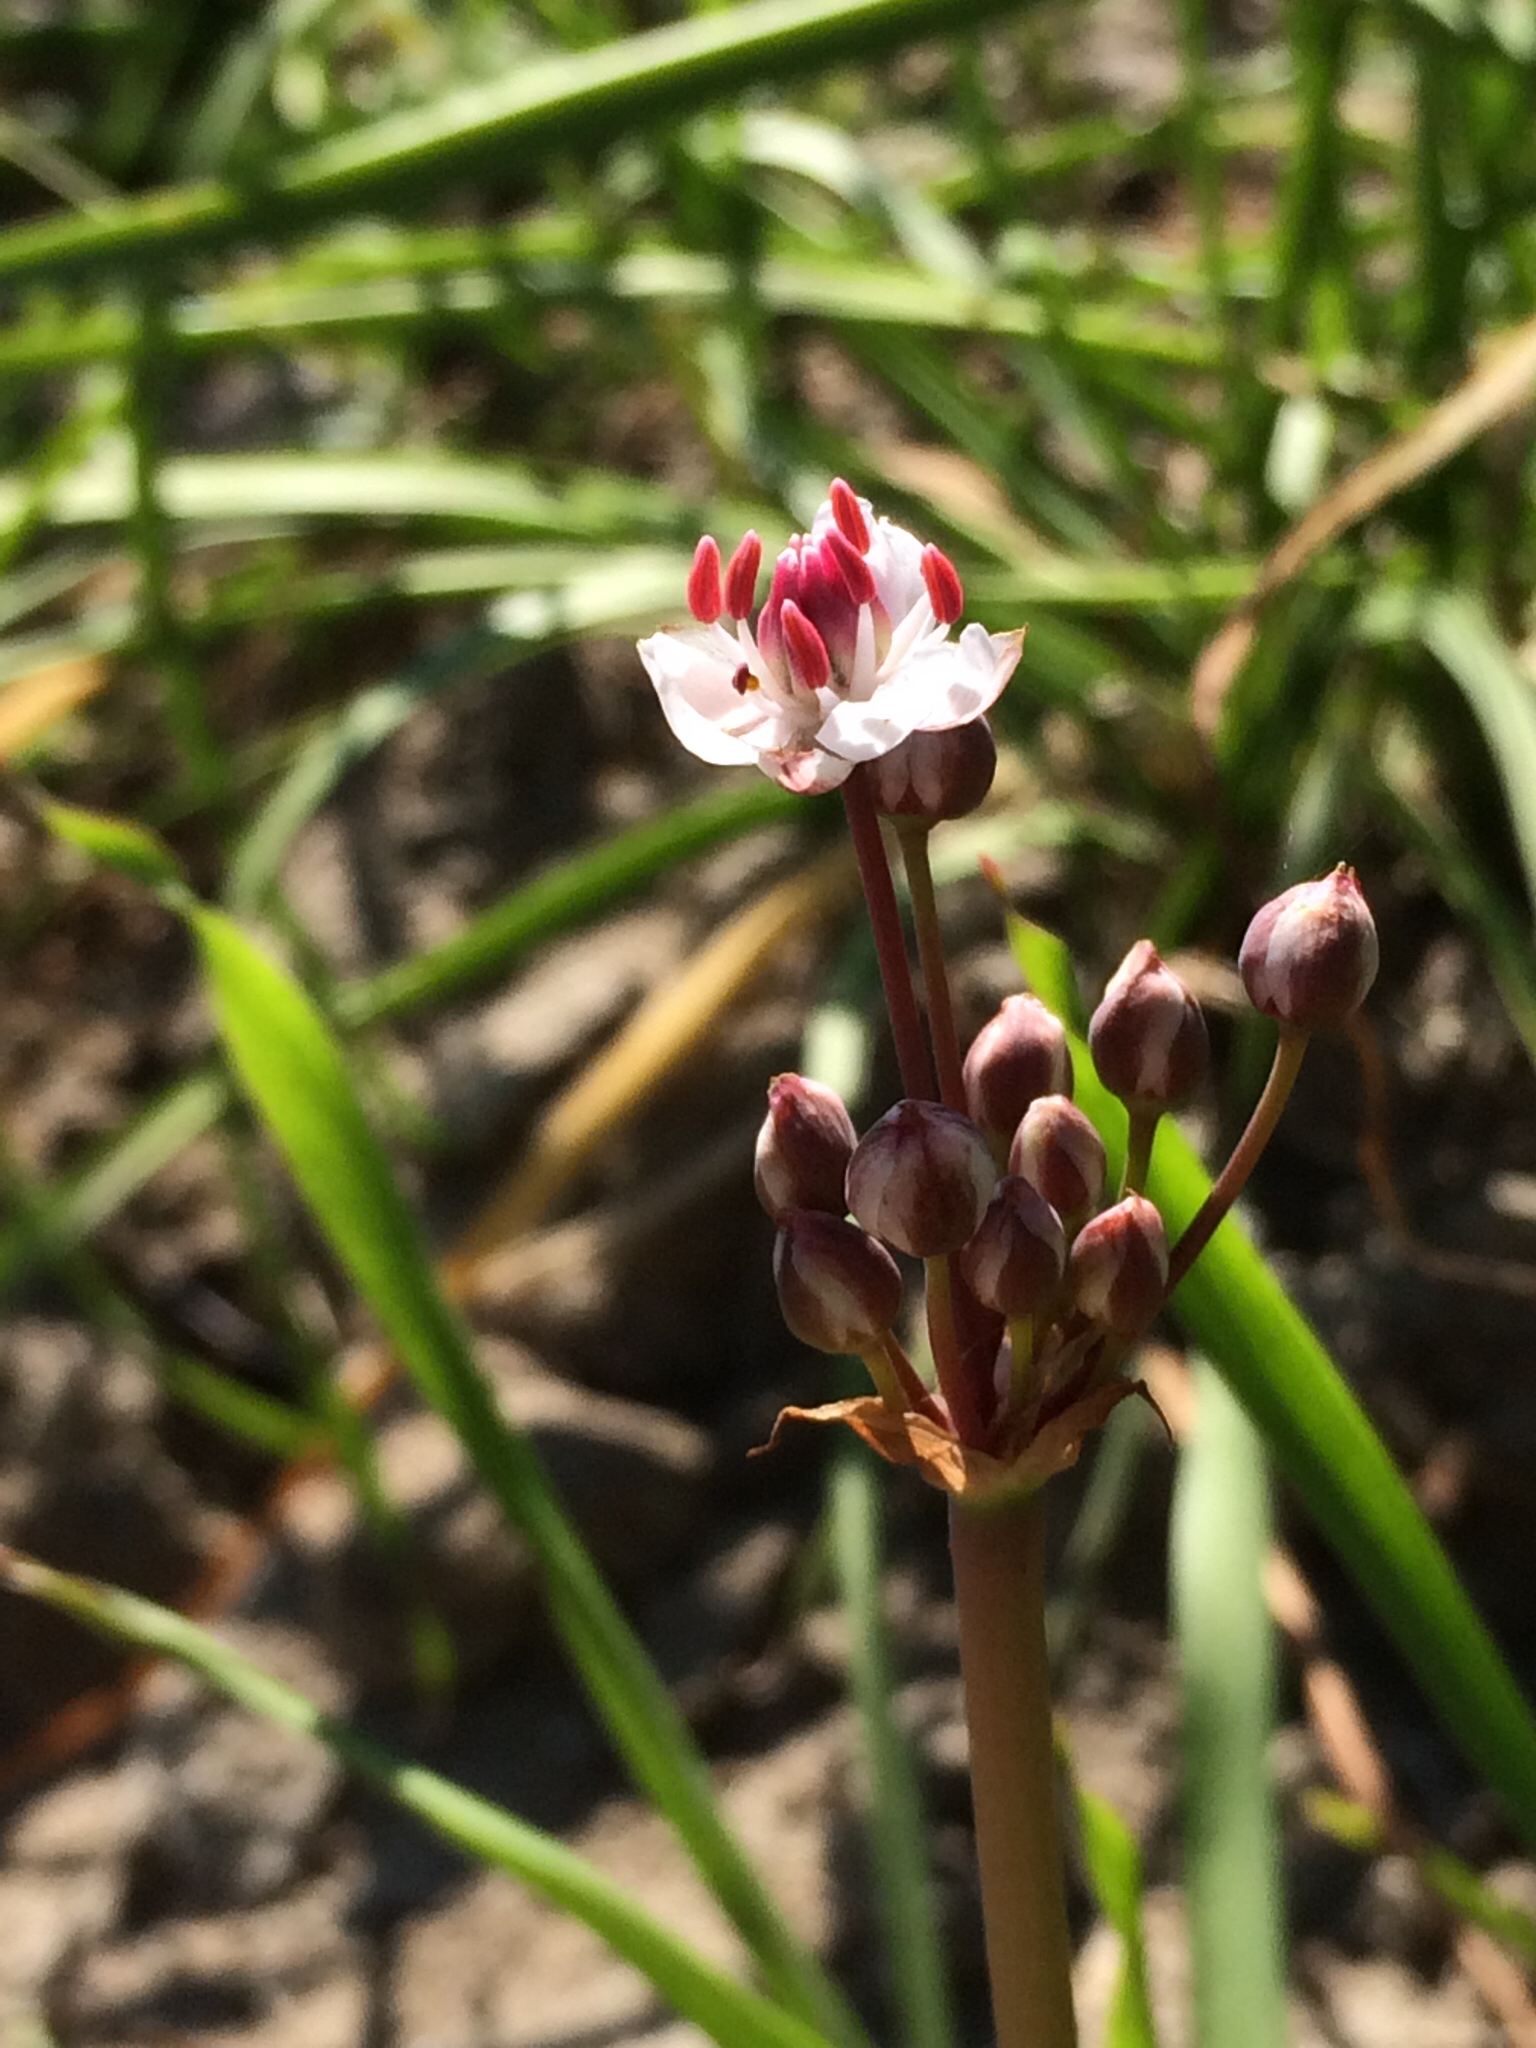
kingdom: Plantae
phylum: Tracheophyta
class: Liliopsida
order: Alismatales
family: Butomaceae
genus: Butomus
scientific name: Butomus umbellatus
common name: Flowering-rush
